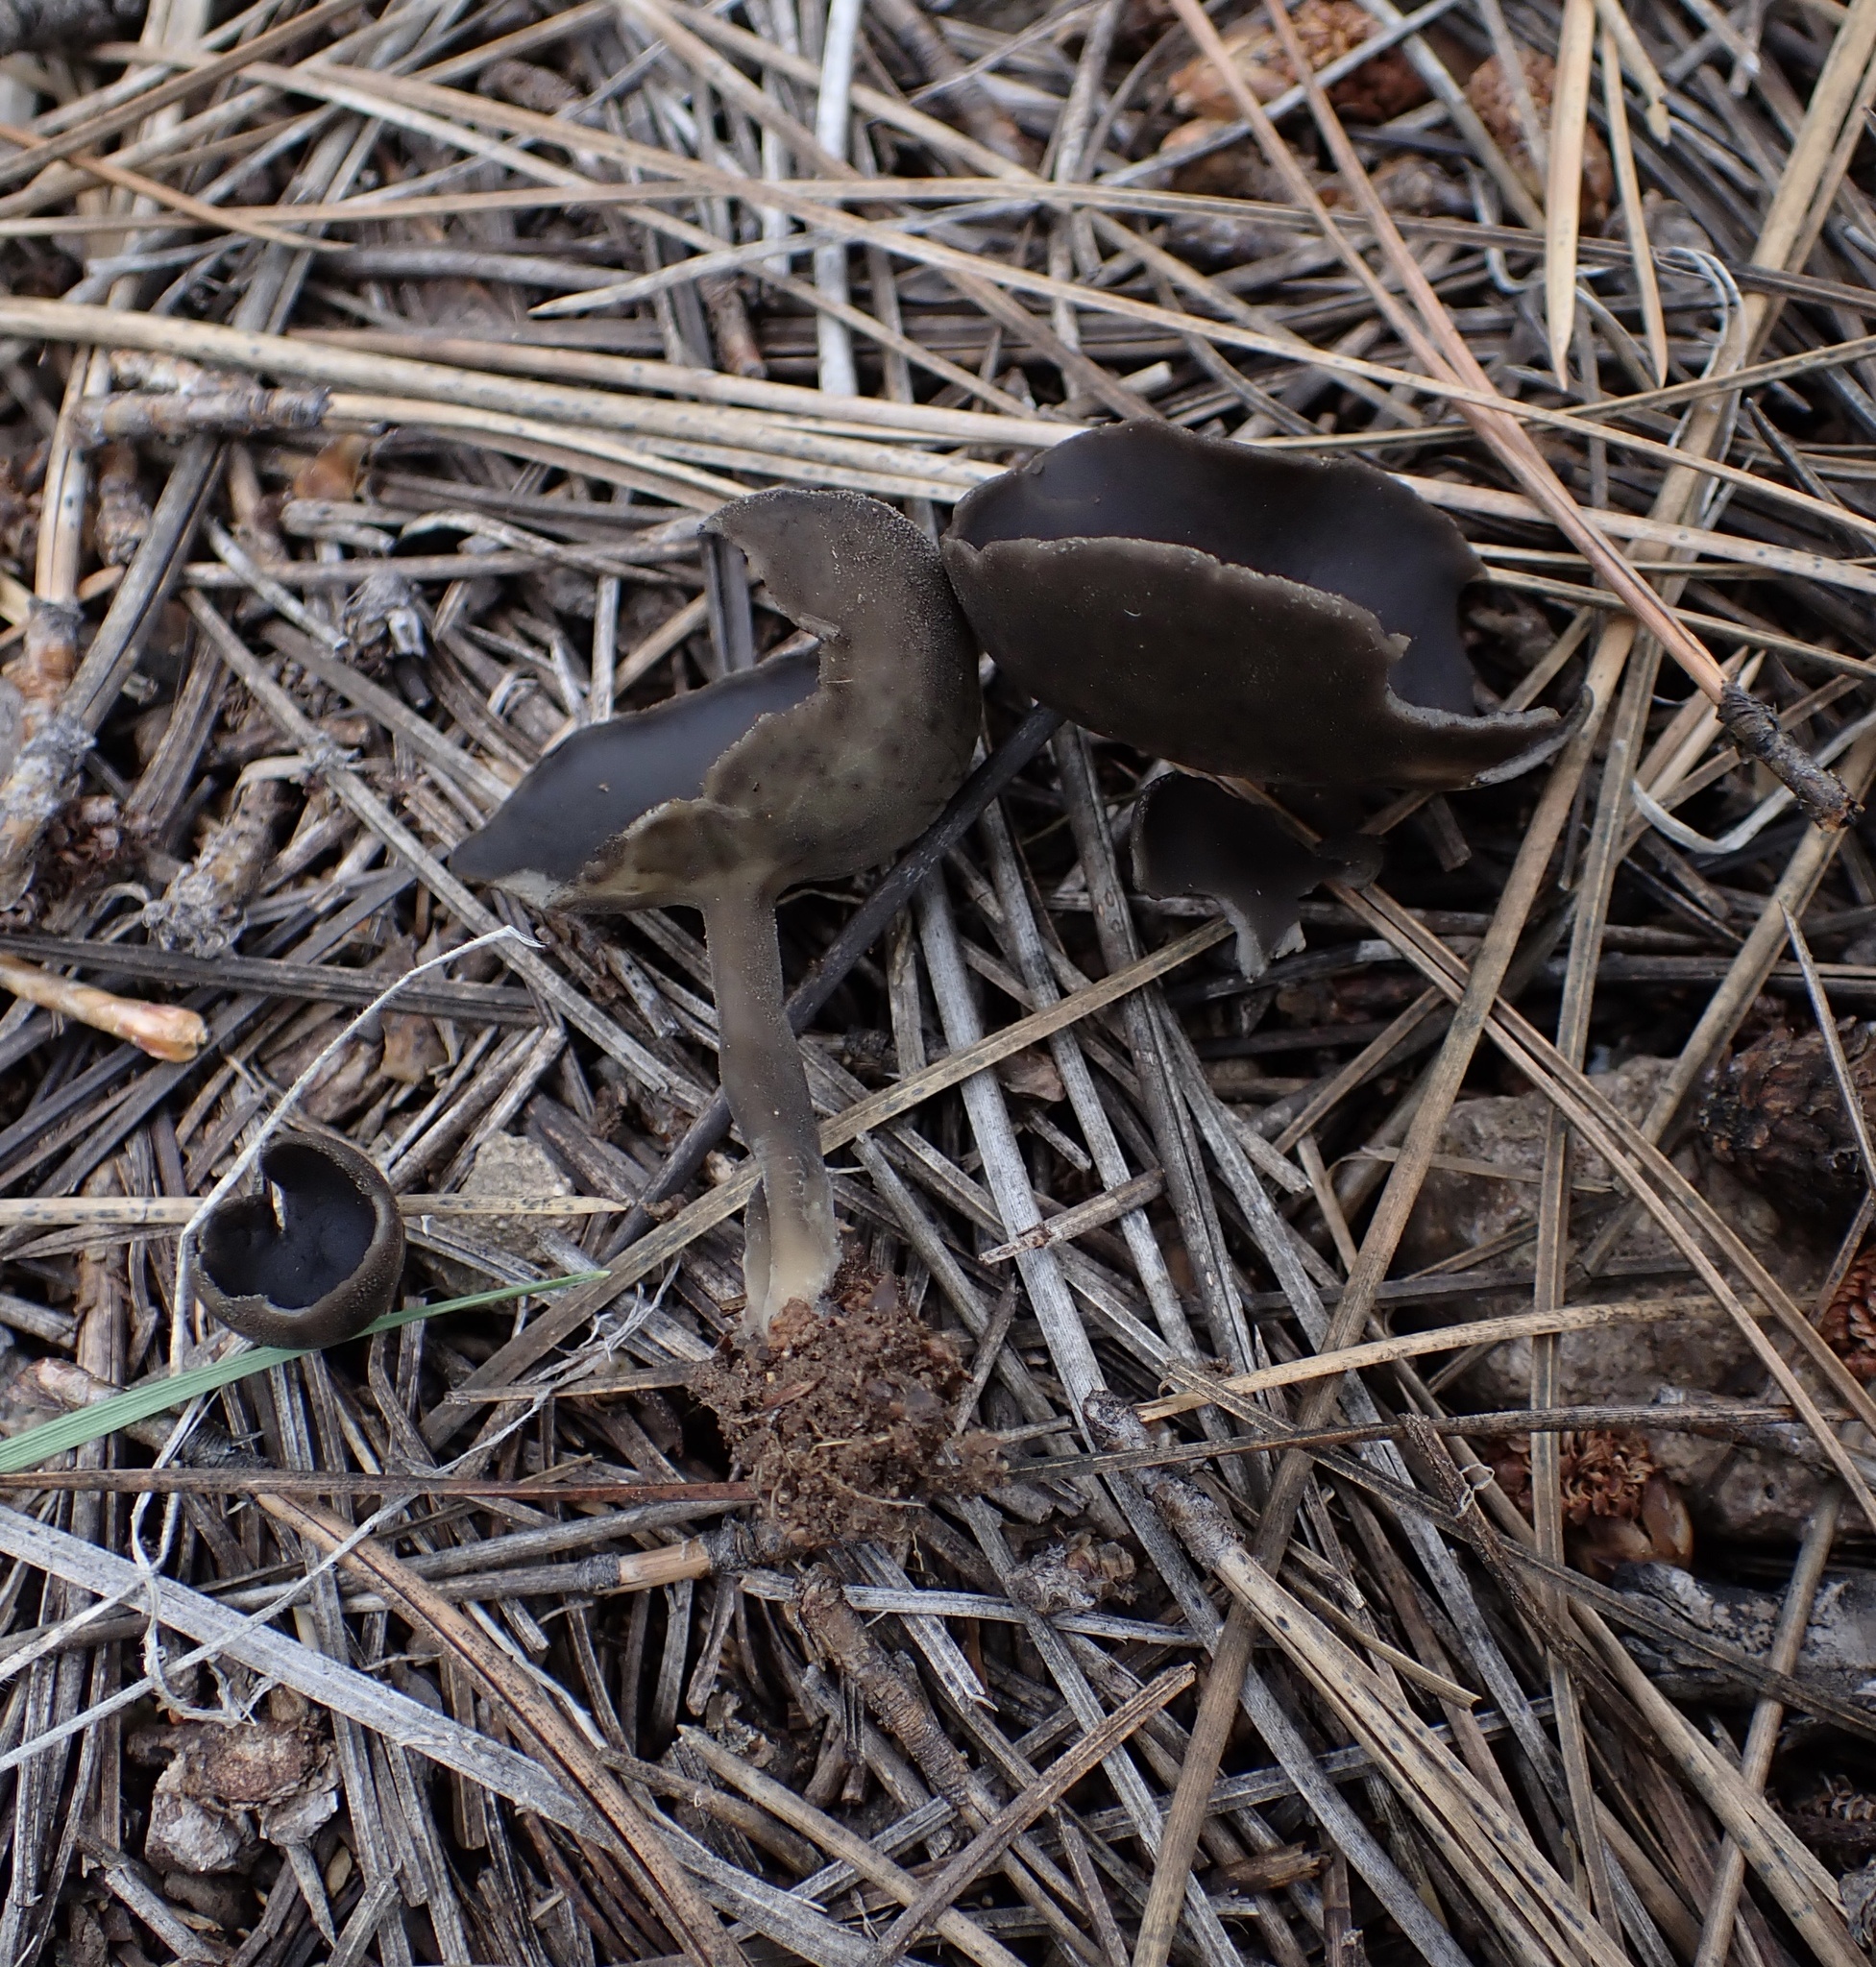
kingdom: Fungi
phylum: Ascomycota
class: Pezizomycetes
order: Pezizales
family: Helvellaceae
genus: Helvella
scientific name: Helvella macropus
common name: Felt saddle
